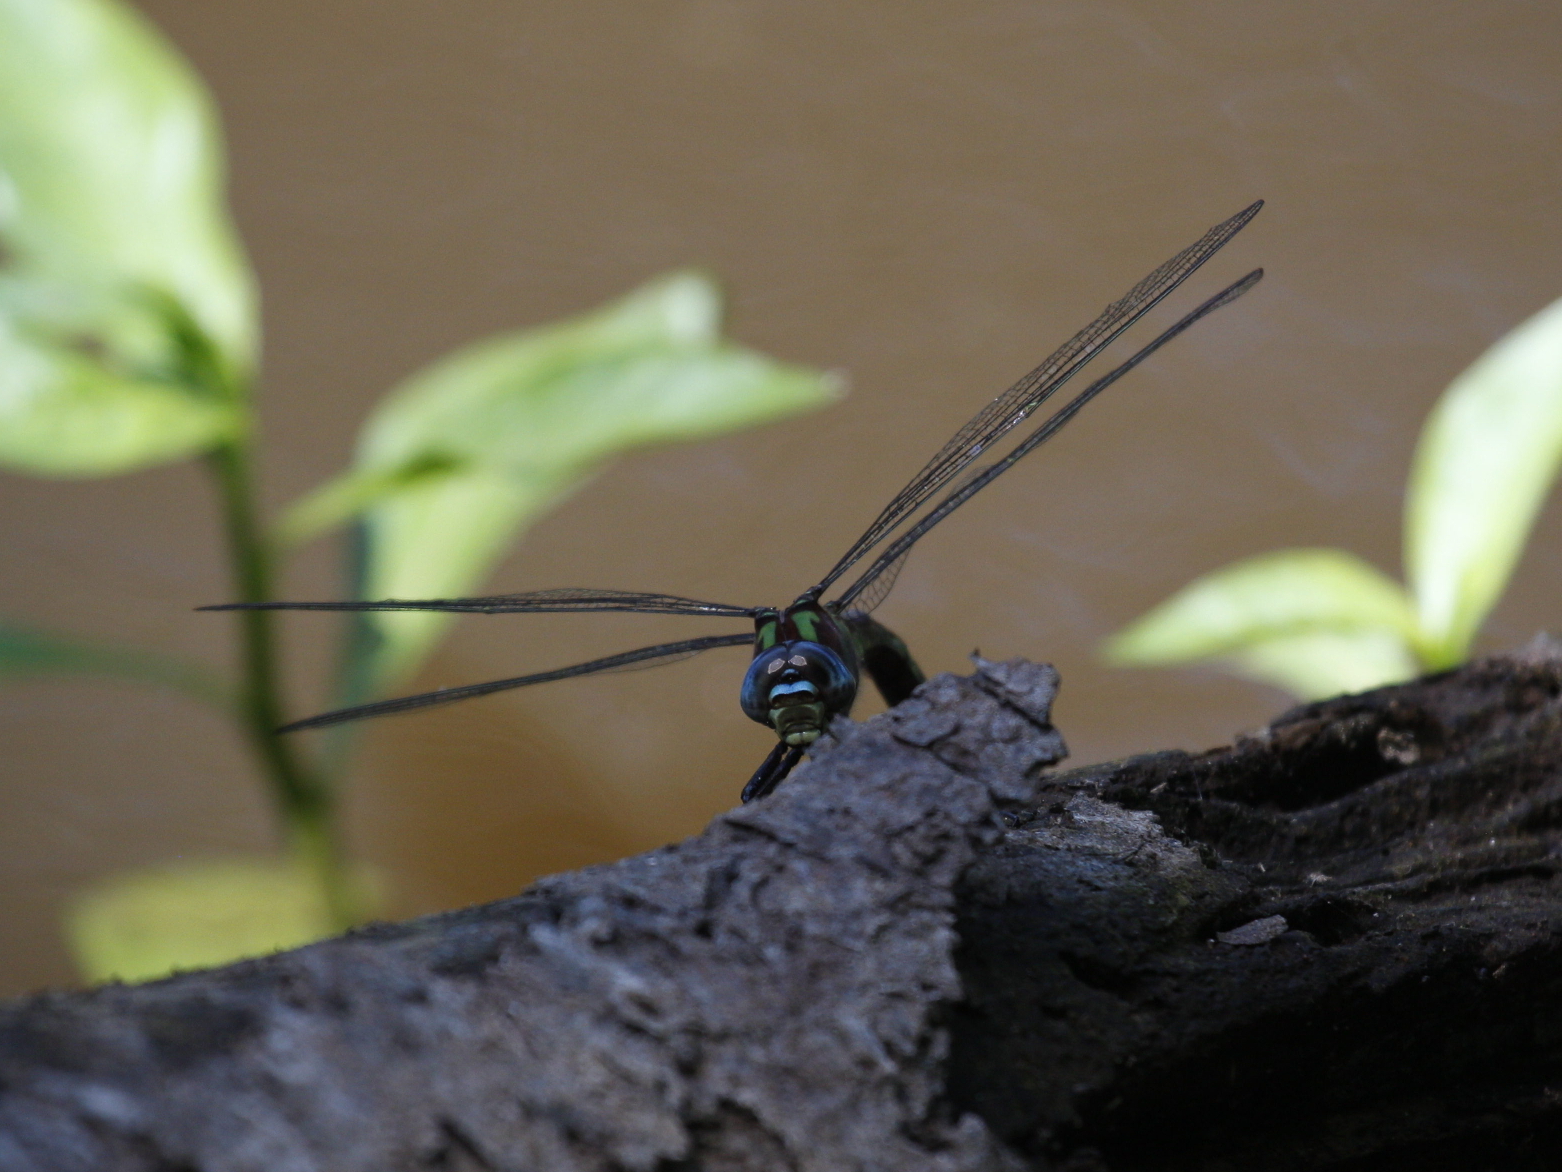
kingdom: Animalia
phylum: Arthropoda
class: Insecta
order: Odonata
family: Aeshnidae
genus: Nasiaeschna
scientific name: Nasiaeschna pentacantha
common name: Cyrano darner
